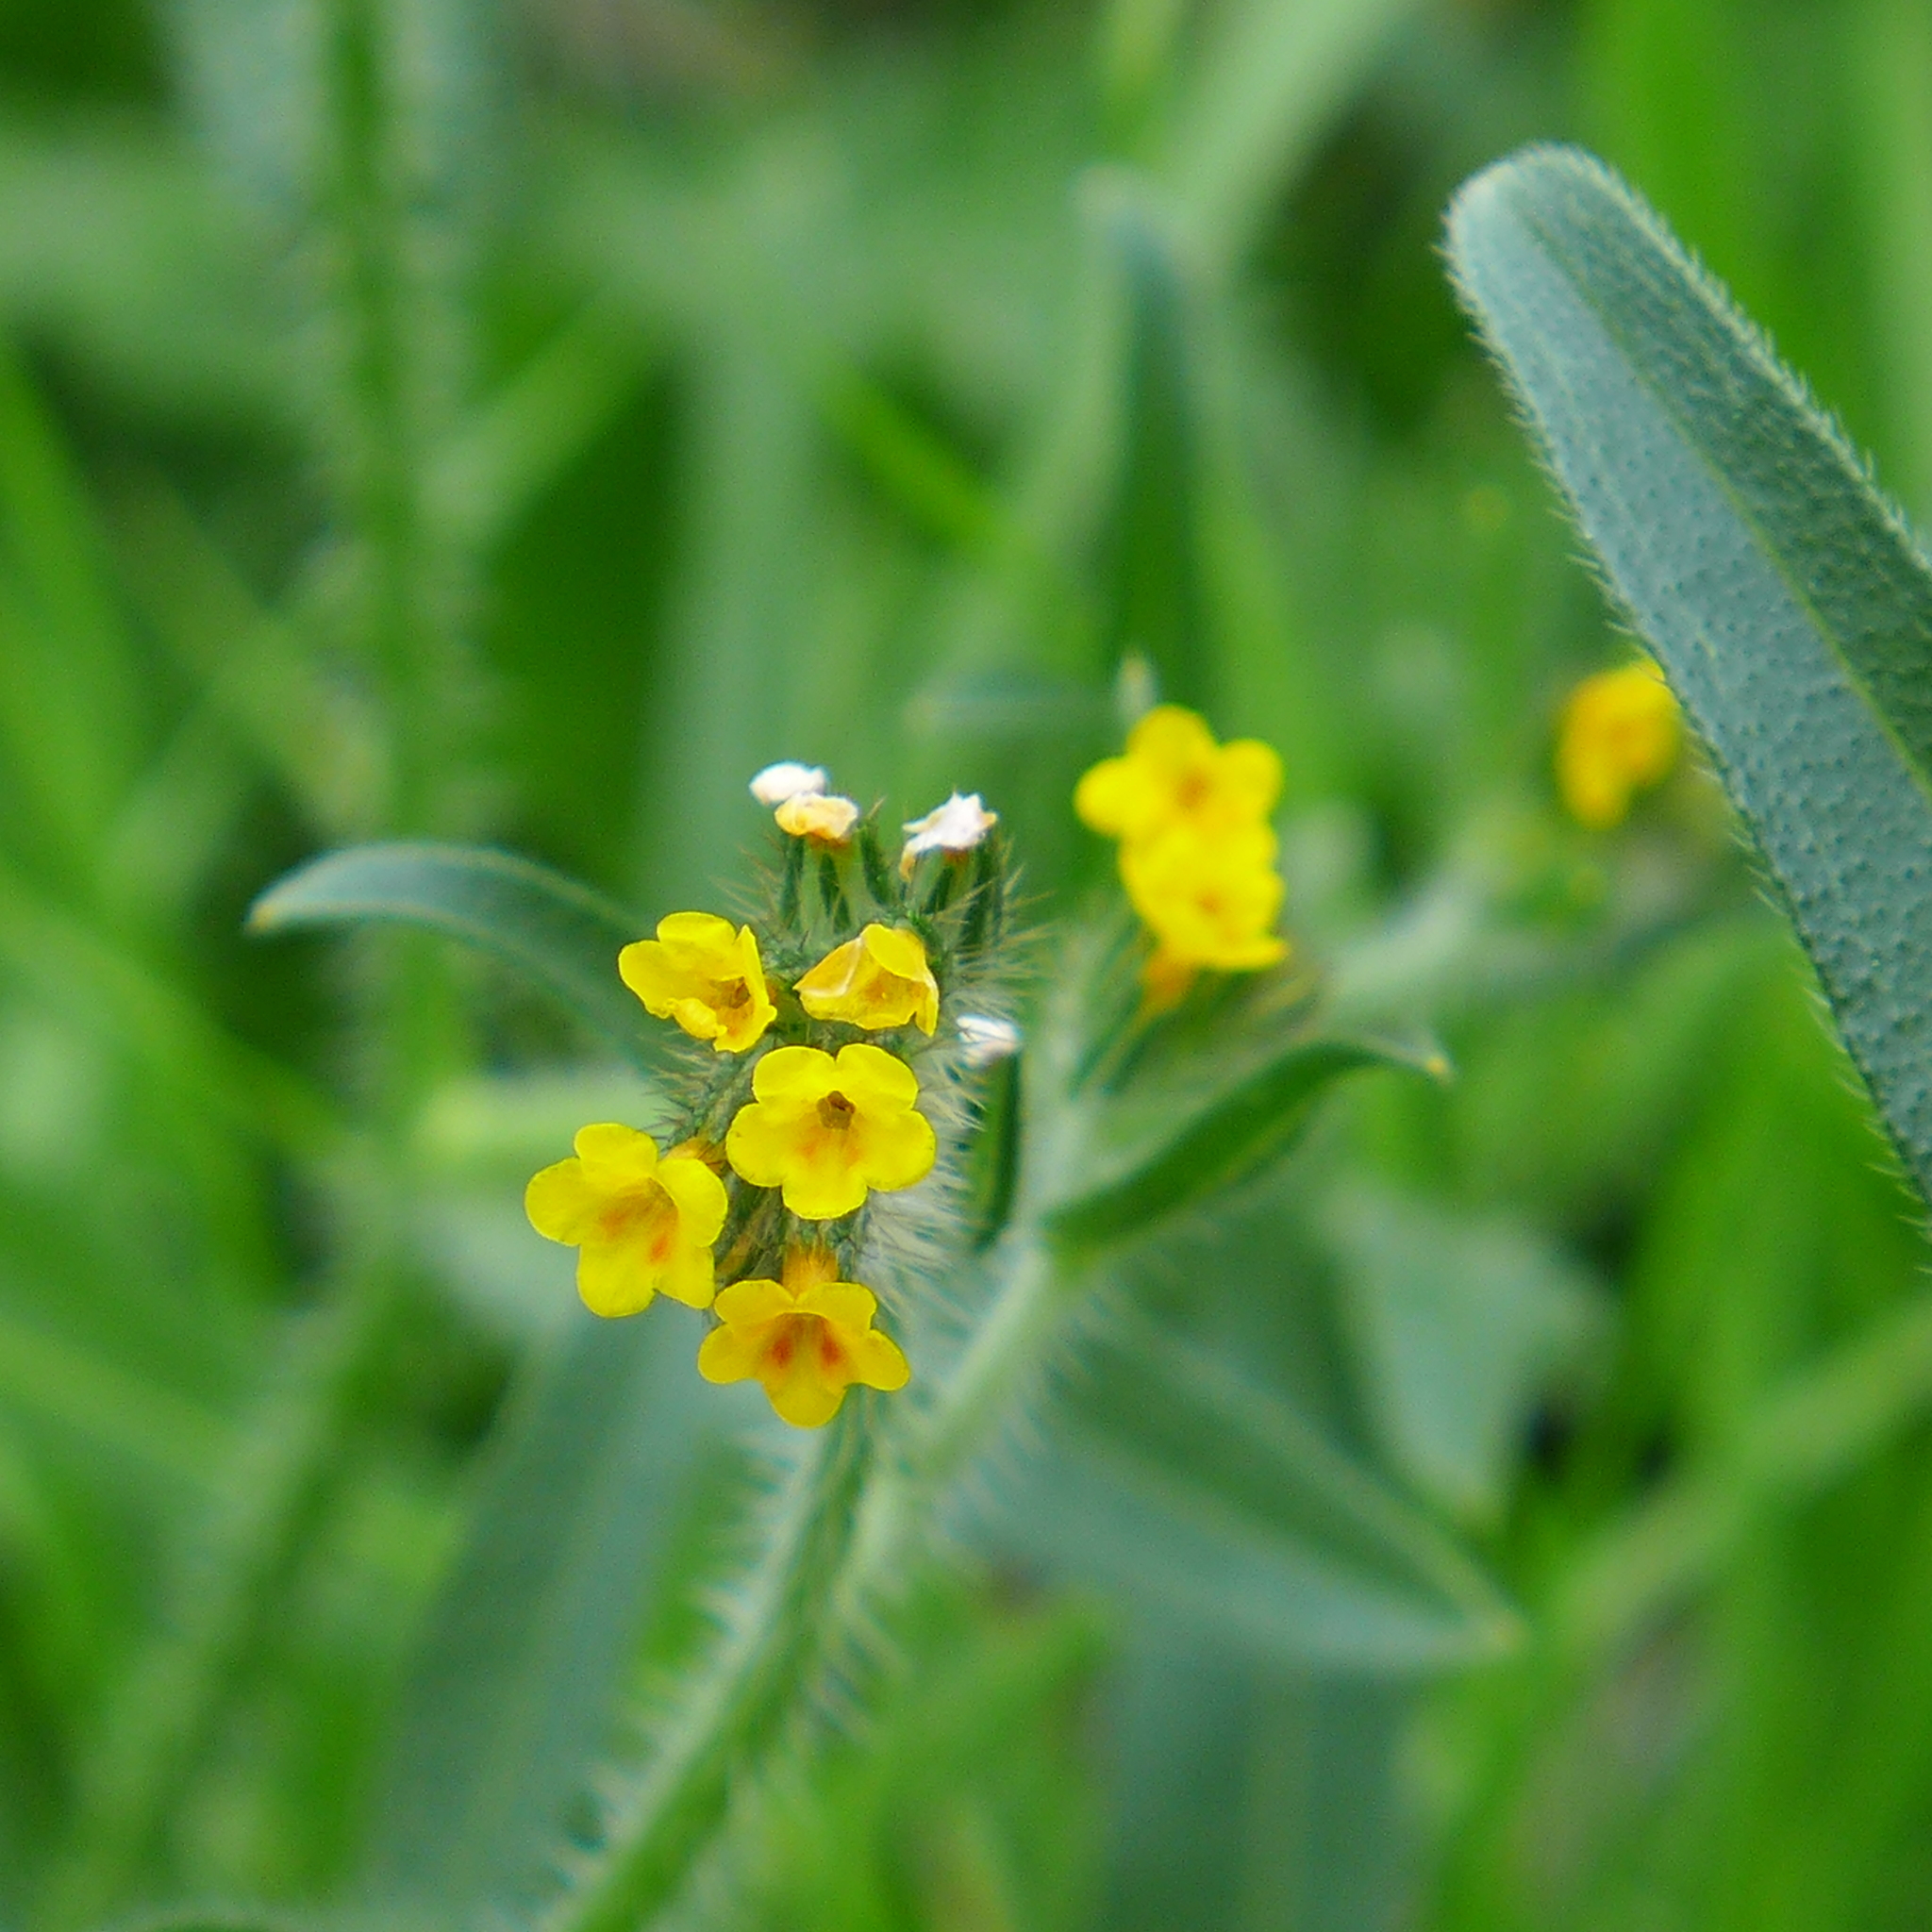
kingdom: Plantae
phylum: Tracheophyta
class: Magnoliopsida
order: Boraginales
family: Boraginaceae
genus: Amsinckia
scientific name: Amsinckia menziesii
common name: Menzies' fiddleneck
